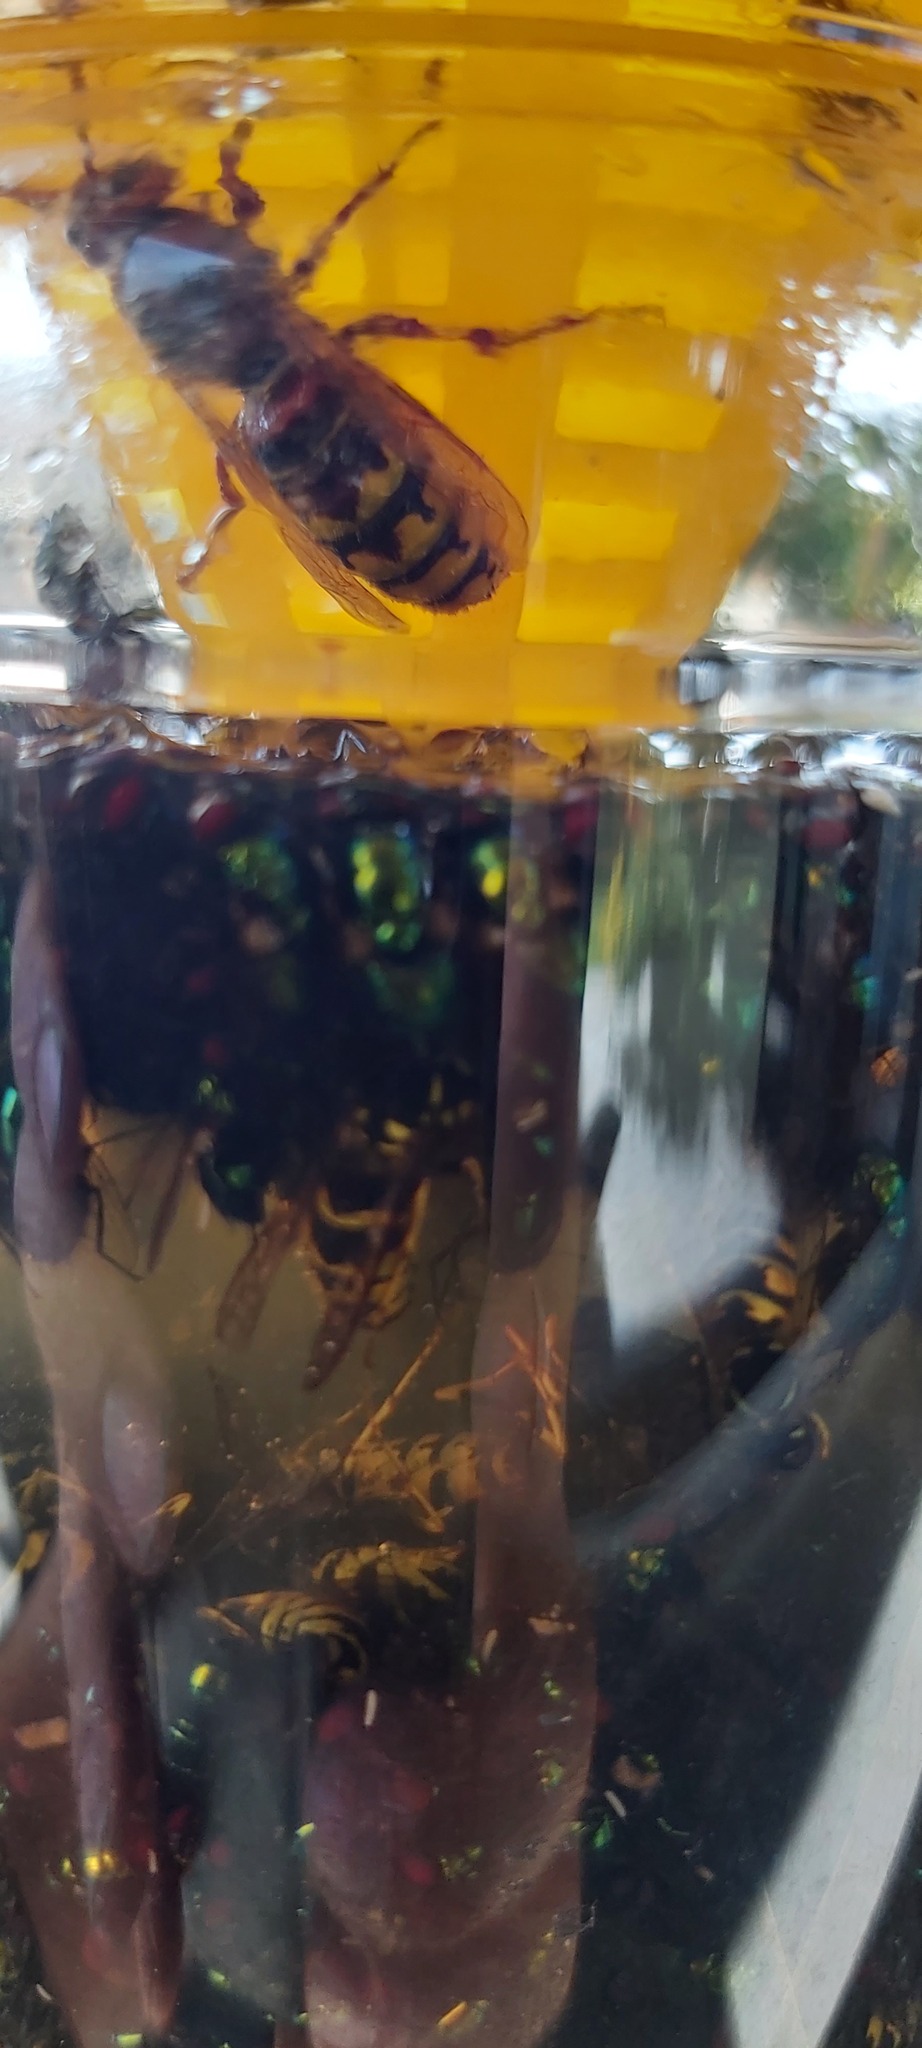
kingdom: Animalia
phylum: Arthropoda
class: Insecta
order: Hymenoptera
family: Vespidae
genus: Vespa
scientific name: Vespa crabro
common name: Hornet
